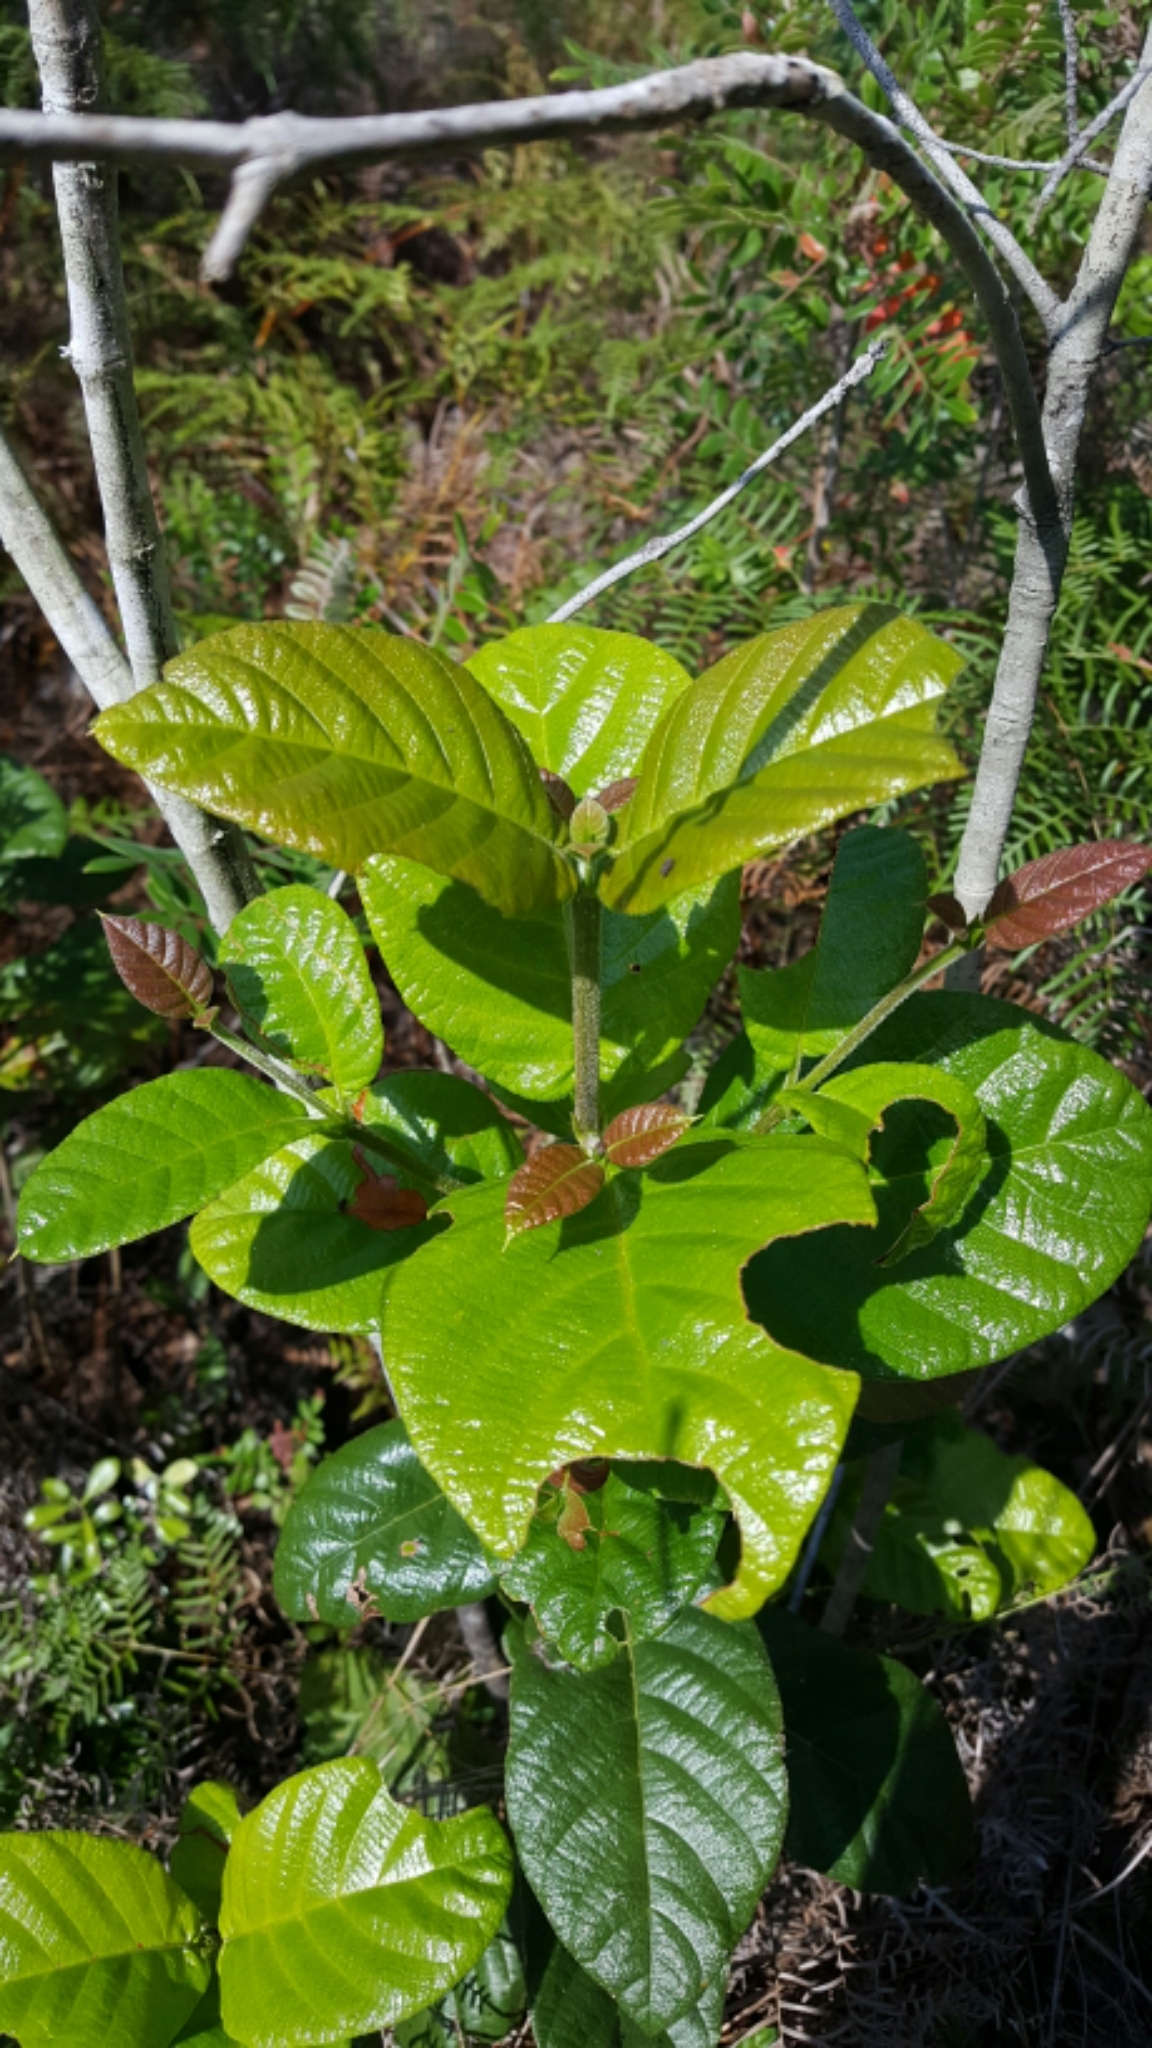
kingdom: Plantae
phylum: Tracheophyta
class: Magnoliopsida
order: Gentianales
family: Rubiaceae
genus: Guettarda
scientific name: Guettarda scabra
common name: Pigeon bay
